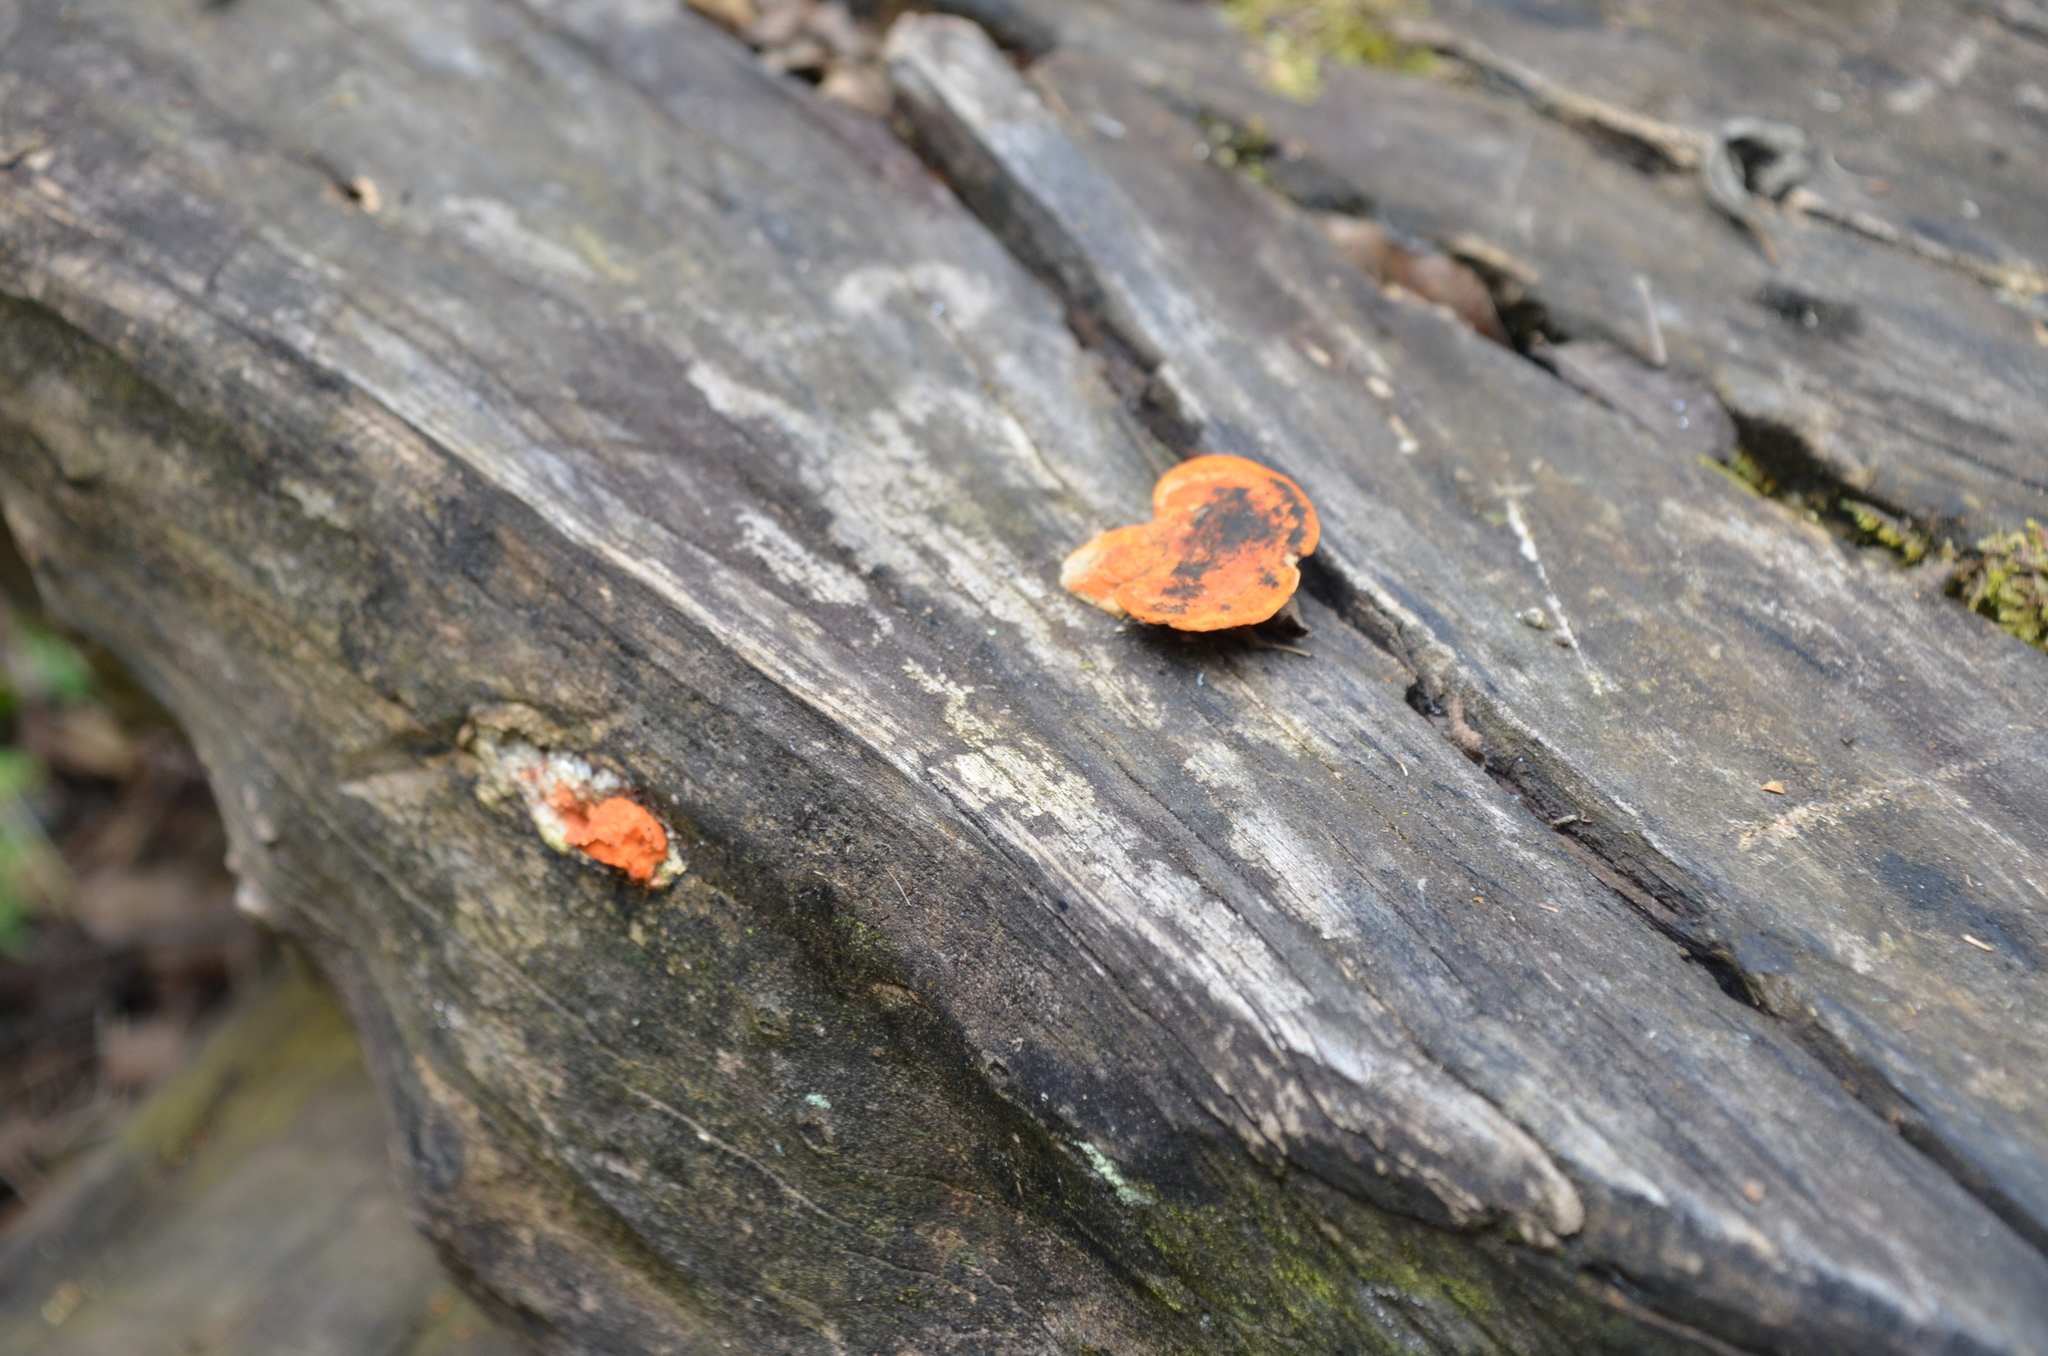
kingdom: Fungi
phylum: Basidiomycota
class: Agaricomycetes
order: Polyporales
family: Polyporaceae
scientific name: Polyporaceae
